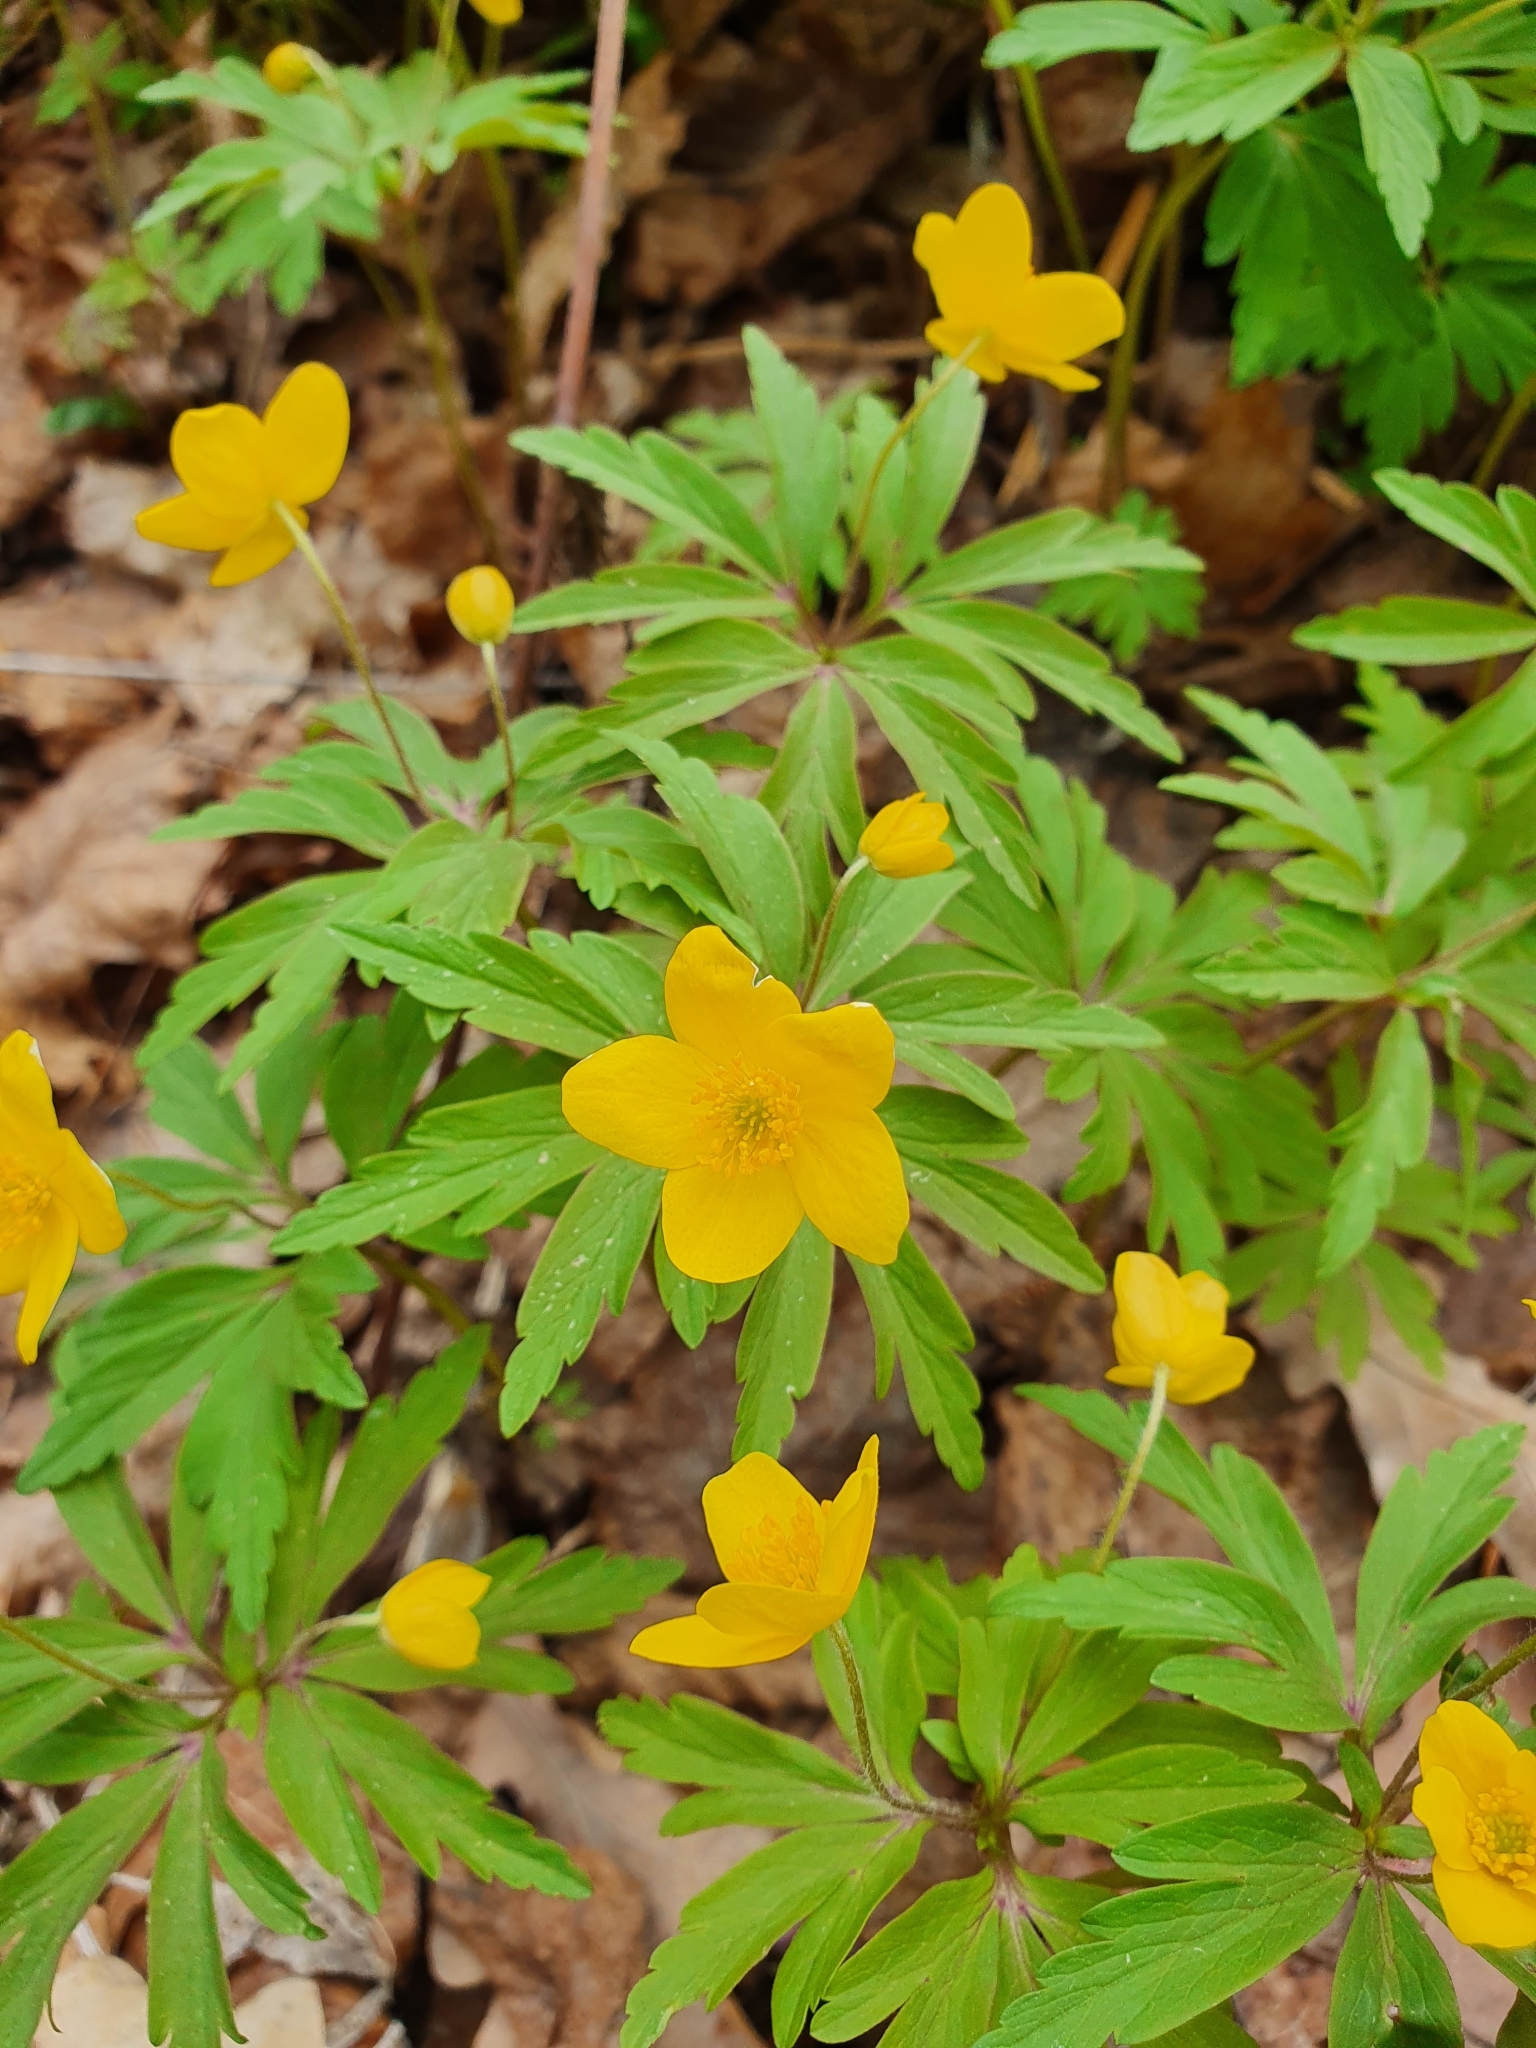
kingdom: Plantae
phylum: Tracheophyta
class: Magnoliopsida
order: Ranunculales
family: Ranunculaceae
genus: Anemone
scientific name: Anemone ranunculoides
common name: Yellow anemone
